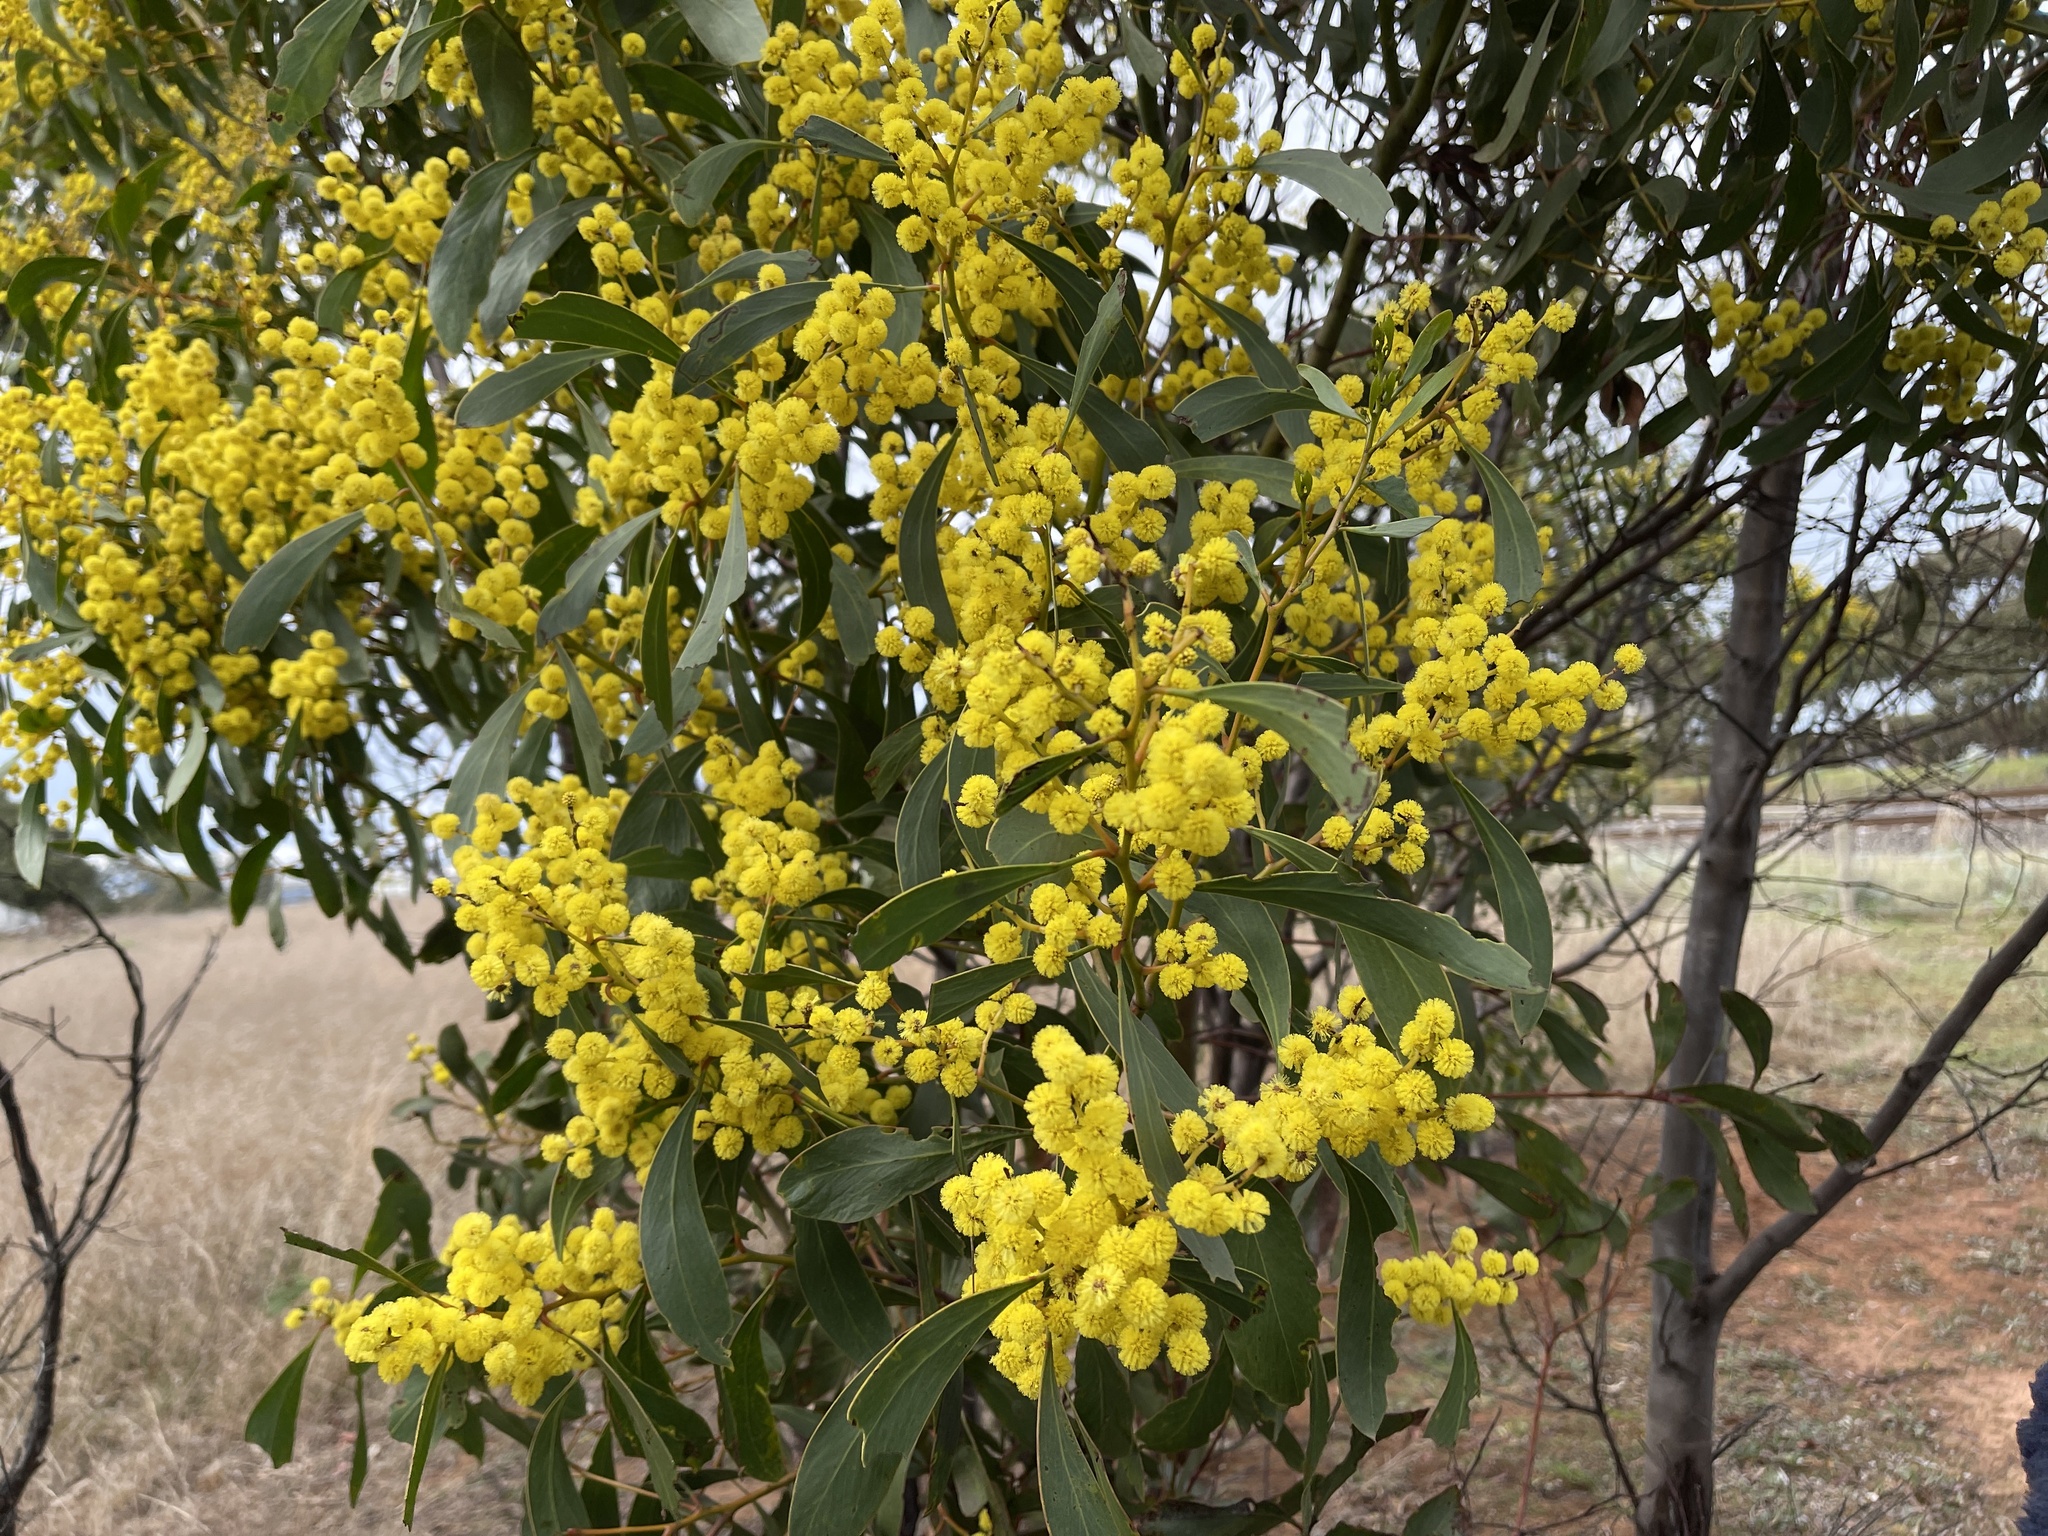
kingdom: Plantae
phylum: Tracheophyta
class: Magnoliopsida
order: Fabales
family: Fabaceae
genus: Acacia
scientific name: Acacia pycnantha
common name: Golden wattle
